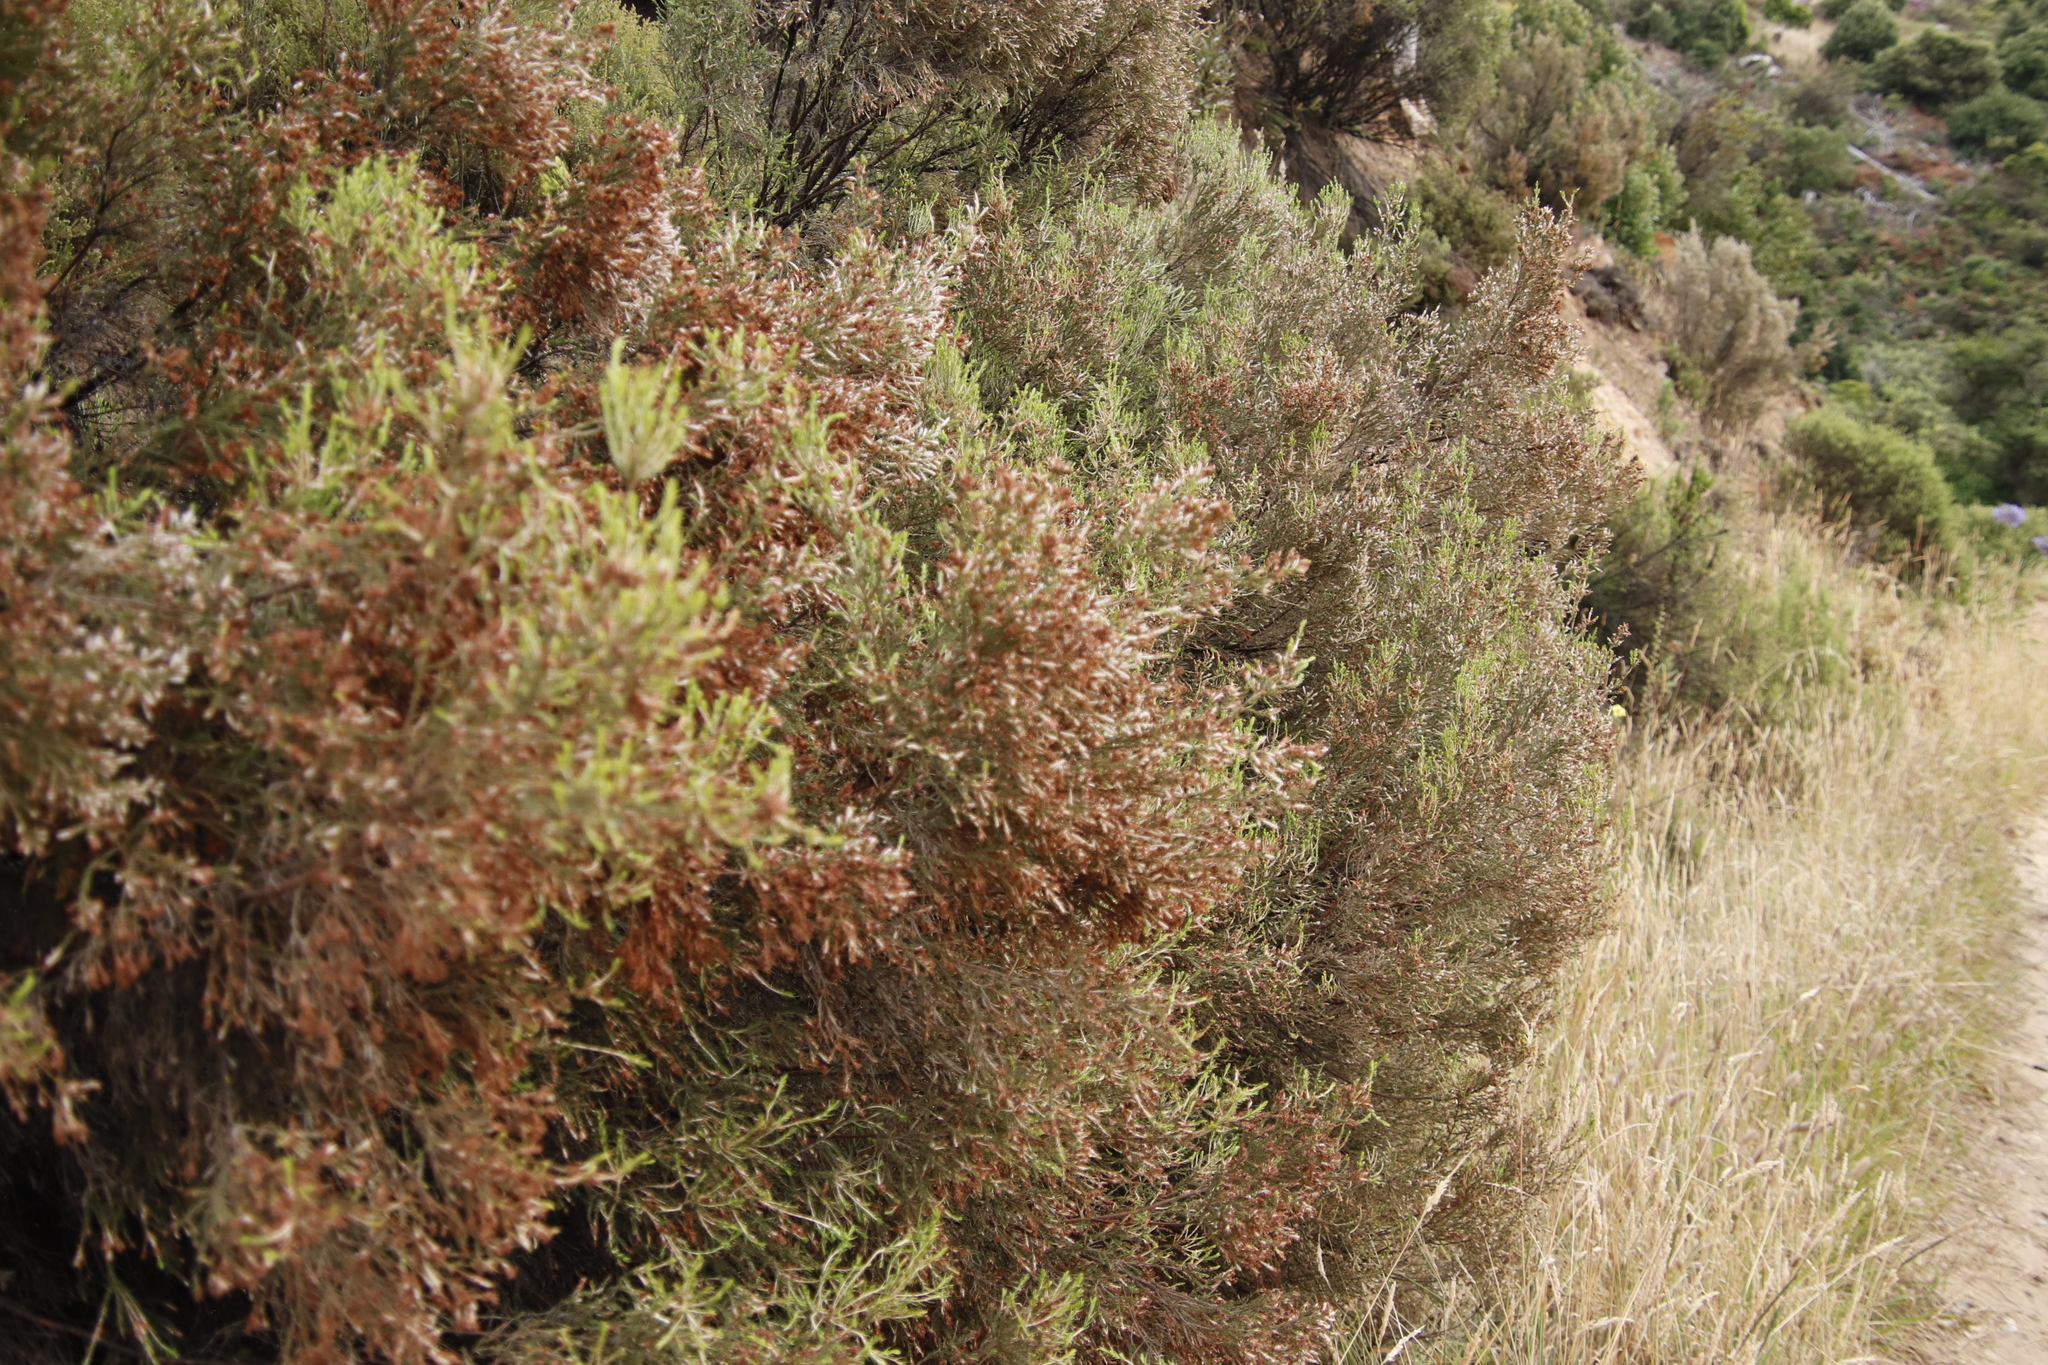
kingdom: Plantae
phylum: Tracheophyta
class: Magnoliopsida
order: Malvales
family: Thymelaeaceae
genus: Passerina
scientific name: Passerina corymbosa
